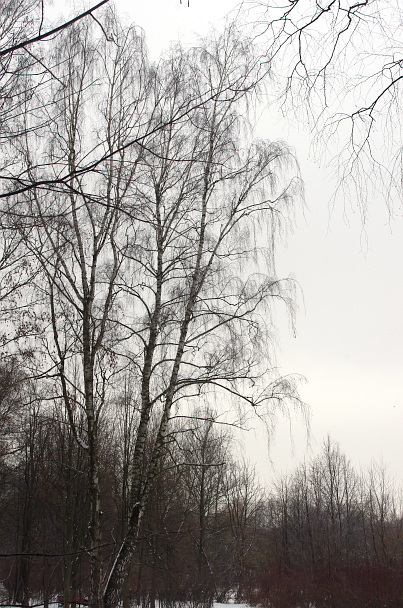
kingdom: Plantae
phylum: Tracheophyta
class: Magnoliopsida
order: Fagales
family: Betulaceae
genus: Betula
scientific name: Betula pendula
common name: Silver birch
